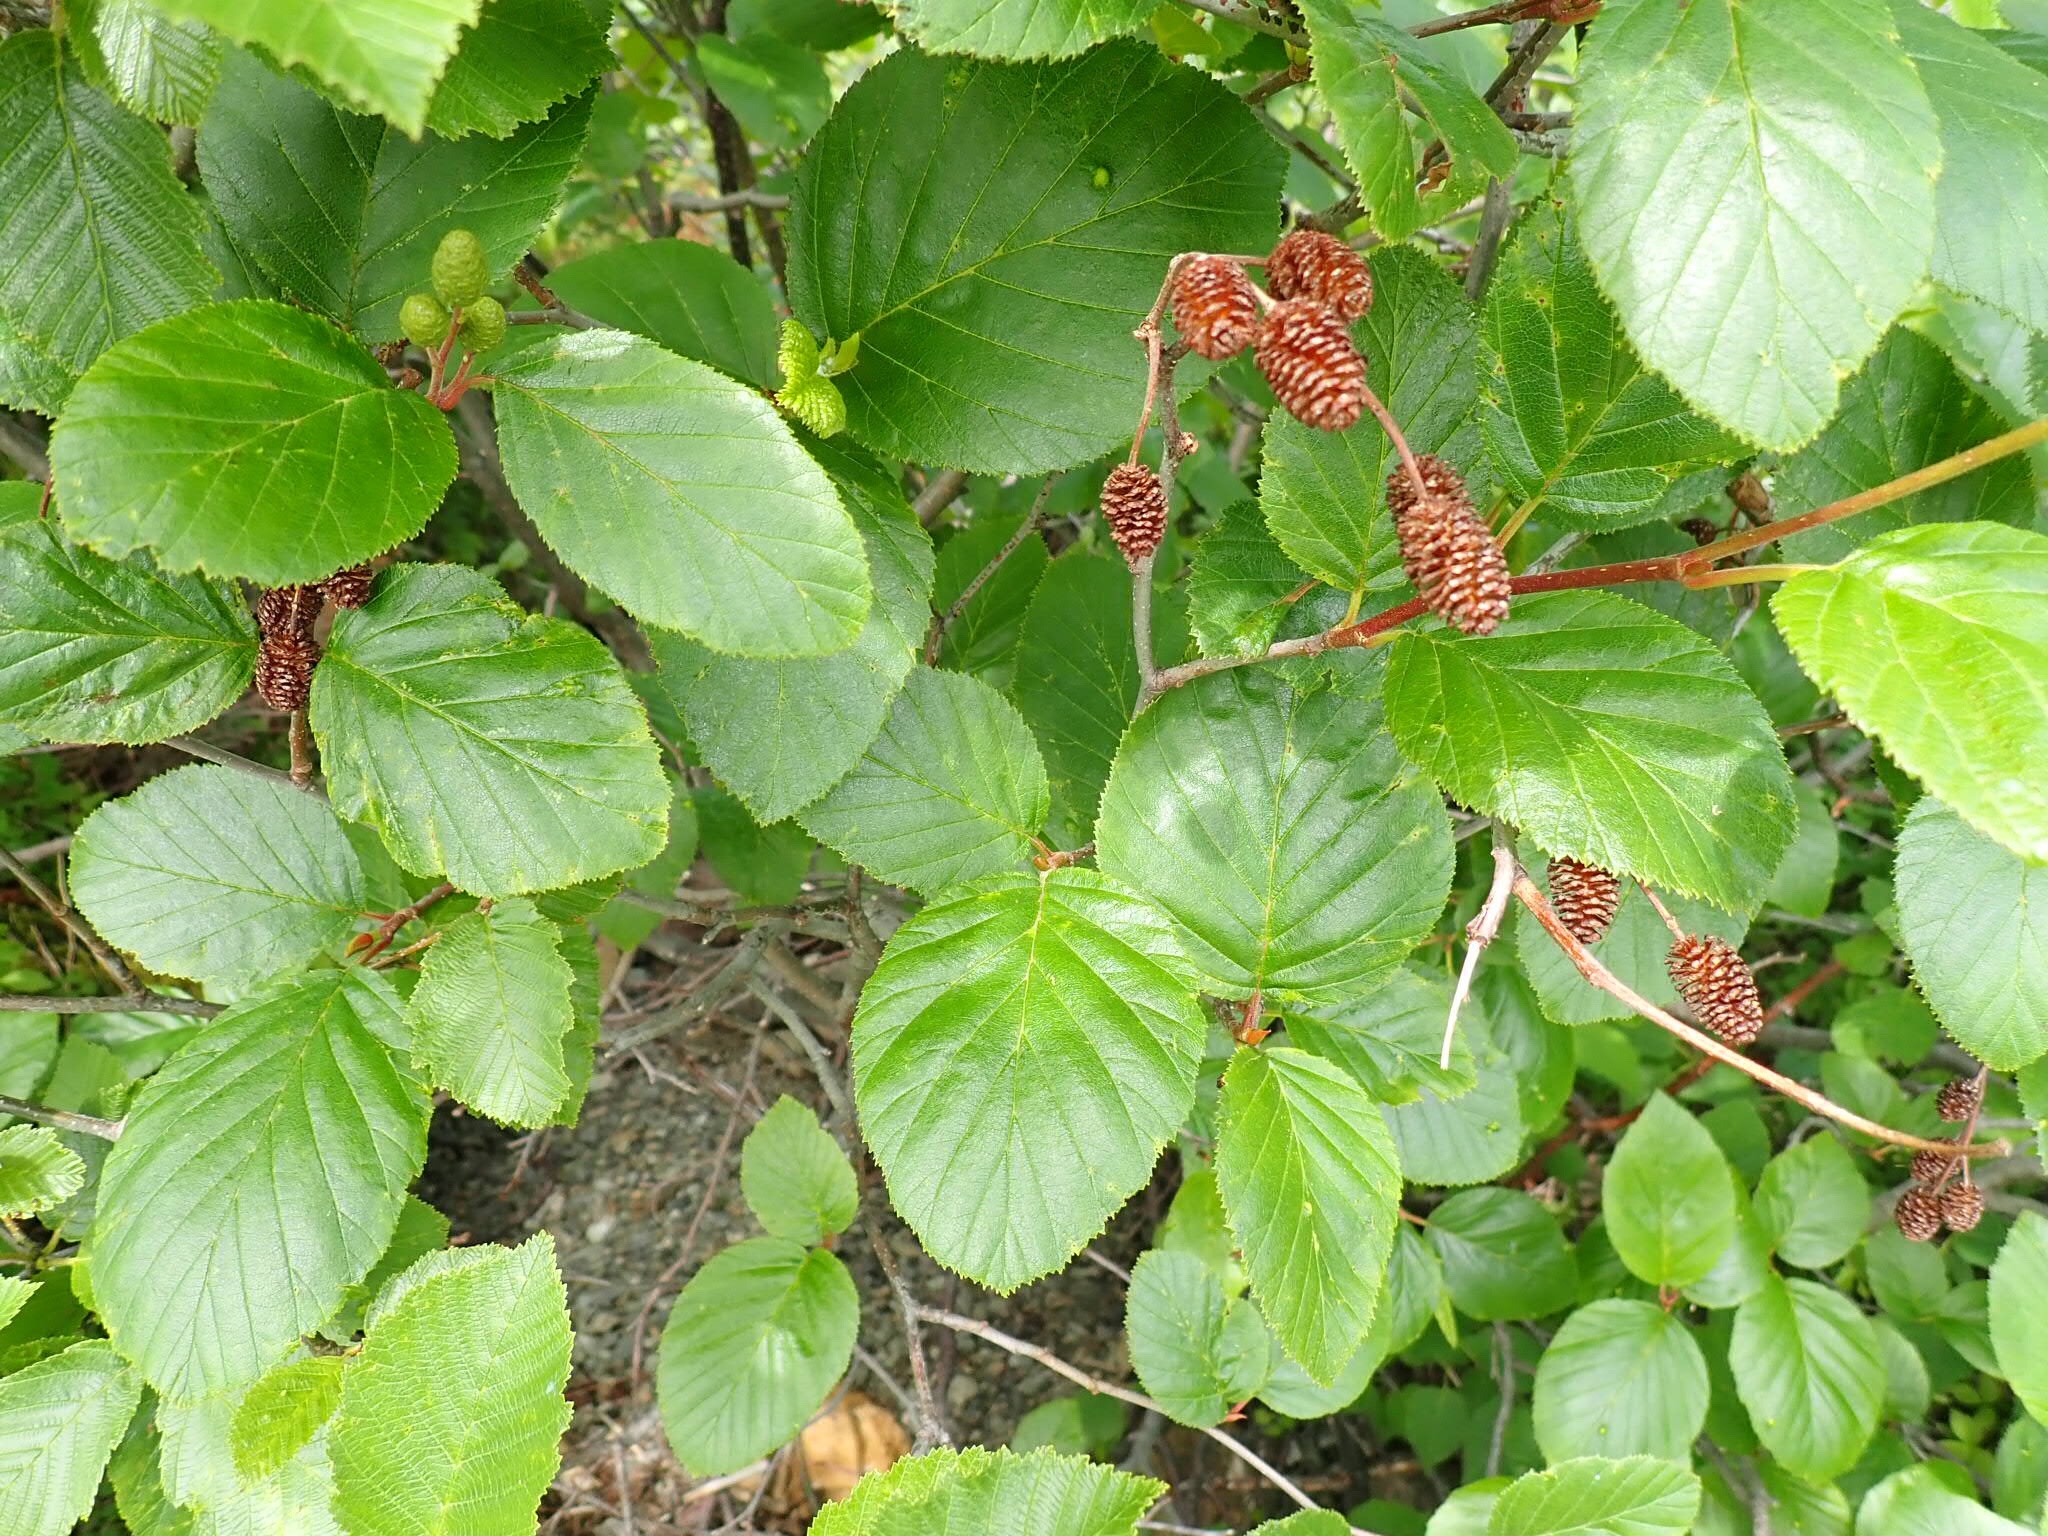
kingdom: Plantae
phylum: Tracheophyta
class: Magnoliopsida
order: Fagales
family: Betulaceae
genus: Alnus
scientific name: Alnus alnobetula
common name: Green alder
